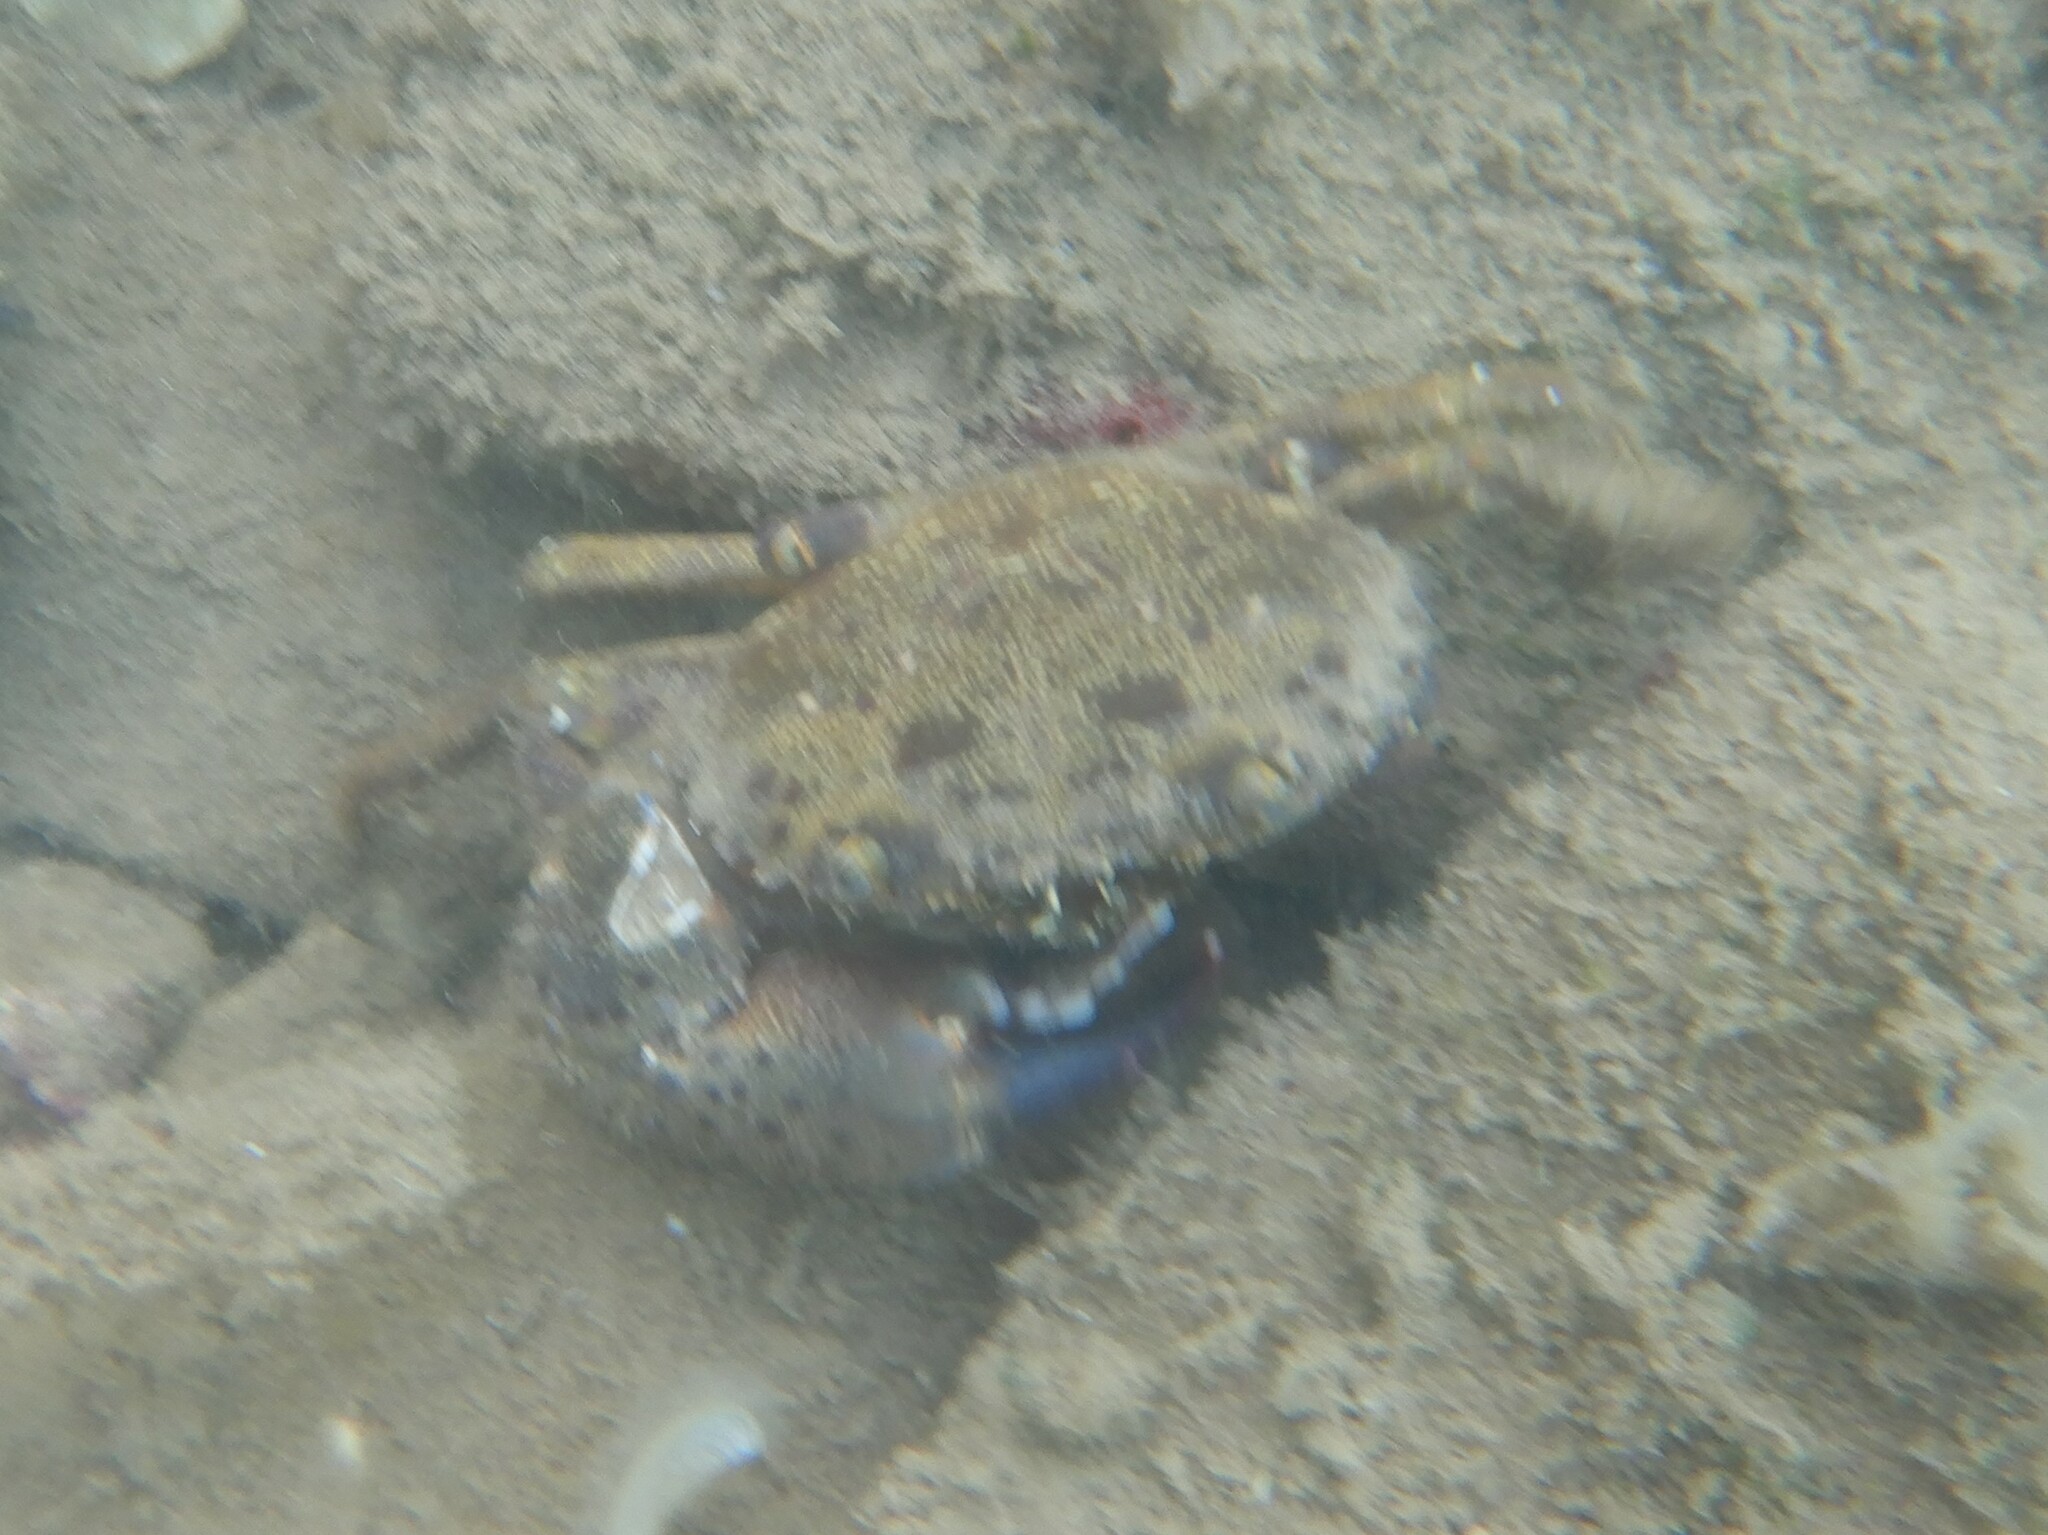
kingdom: Animalia
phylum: Arthropoda
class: Malacostraca
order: Decapoda
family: Eriphiidae
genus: Eriphia
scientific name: Eriphia verrucosa
